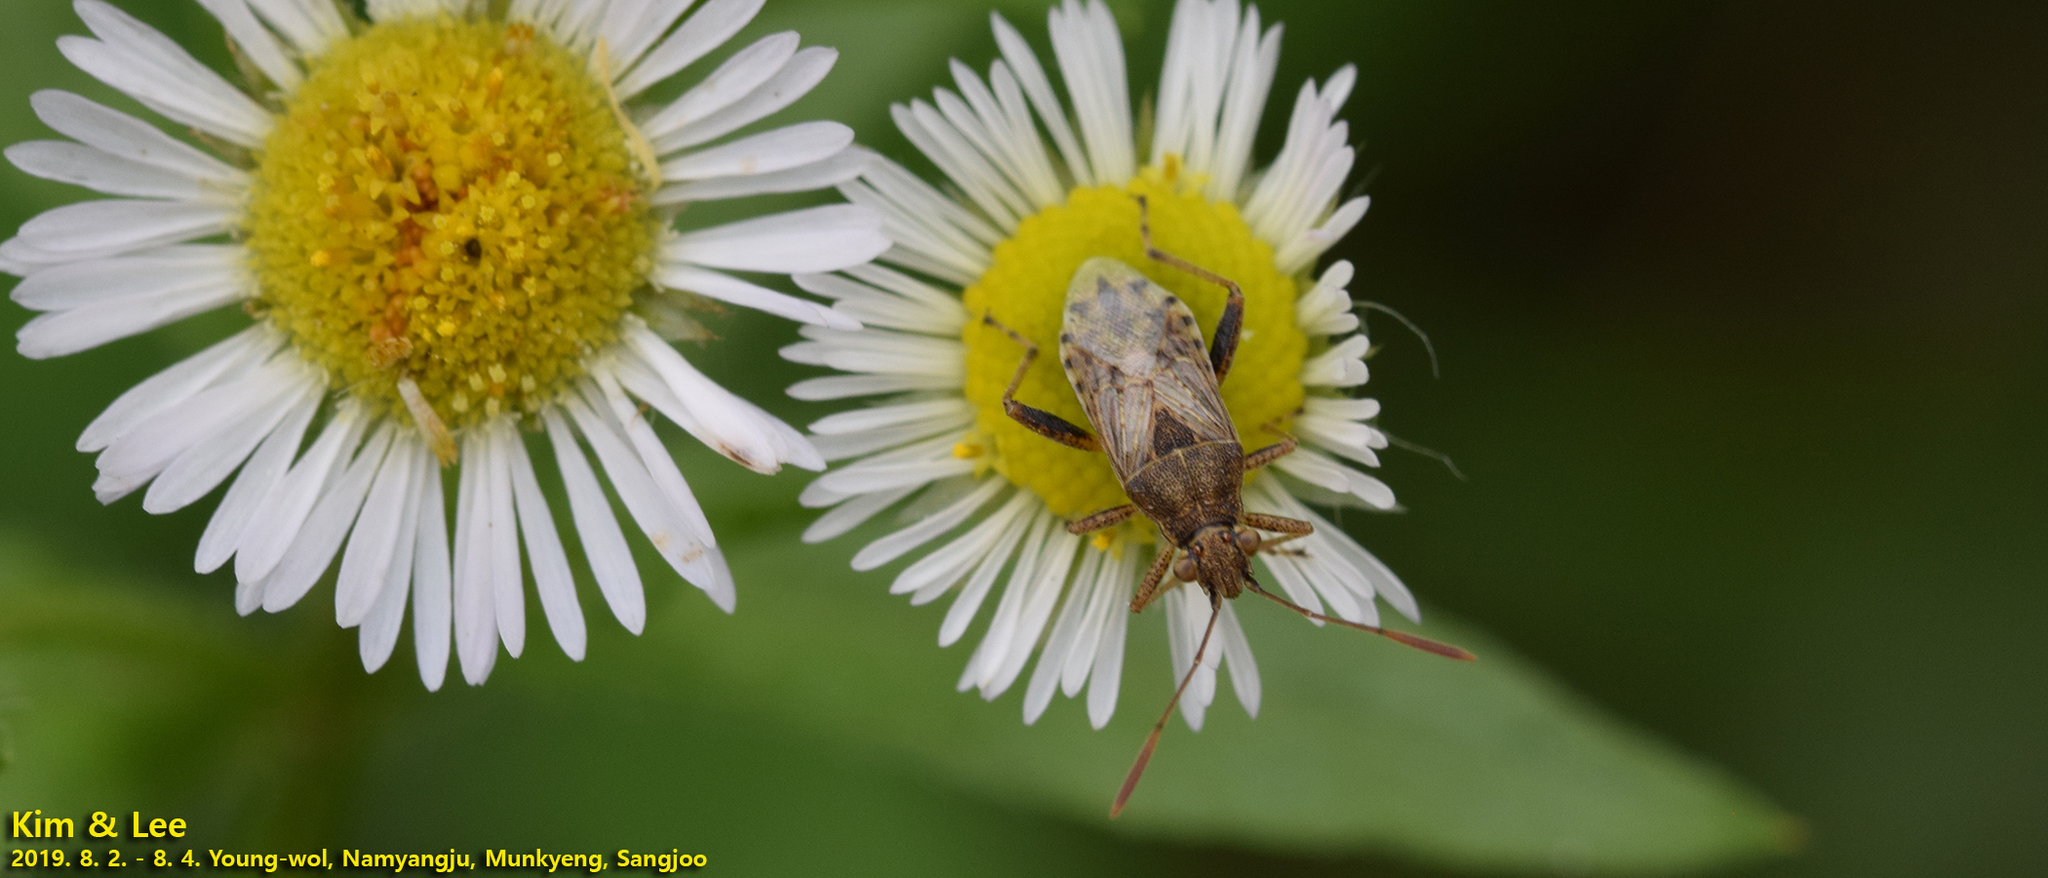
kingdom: Animalia
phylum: Arthropoda
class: Insecta
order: Hemiptera
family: Rhopalidae
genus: Stictopleurus
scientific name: Stictopleurus minutus
